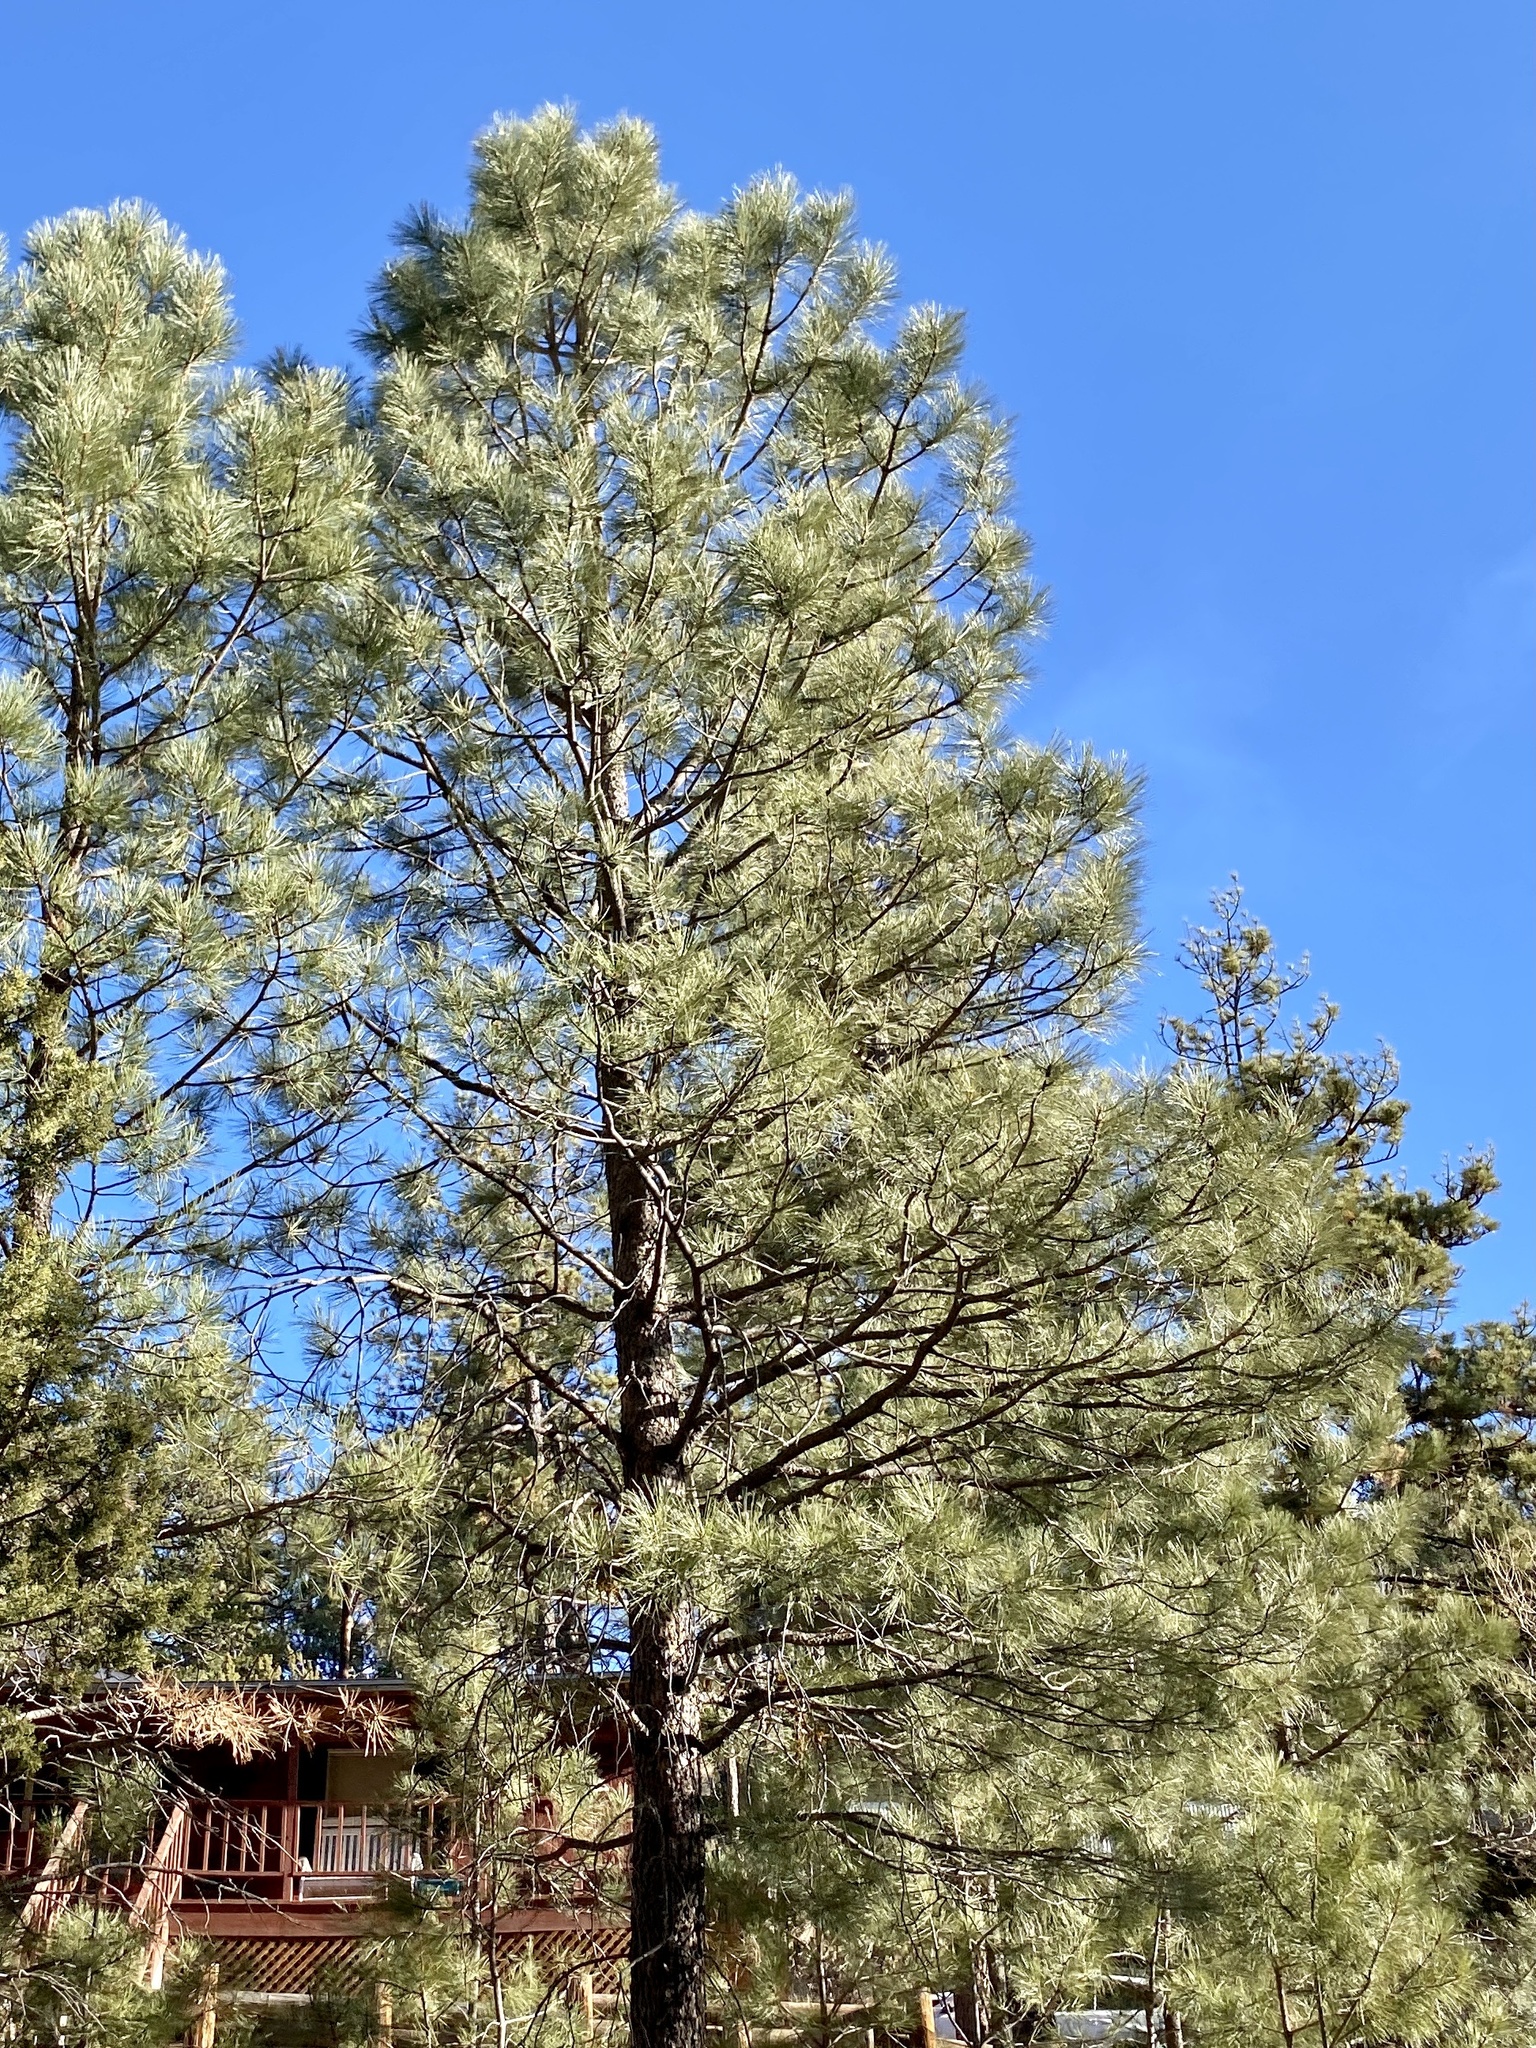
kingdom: Plantae
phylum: Tracheophyta
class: Pinopsida
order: Pinales
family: Pinaceae
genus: Pinus
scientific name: Pinus ponderosa
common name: Western yellow-pine
